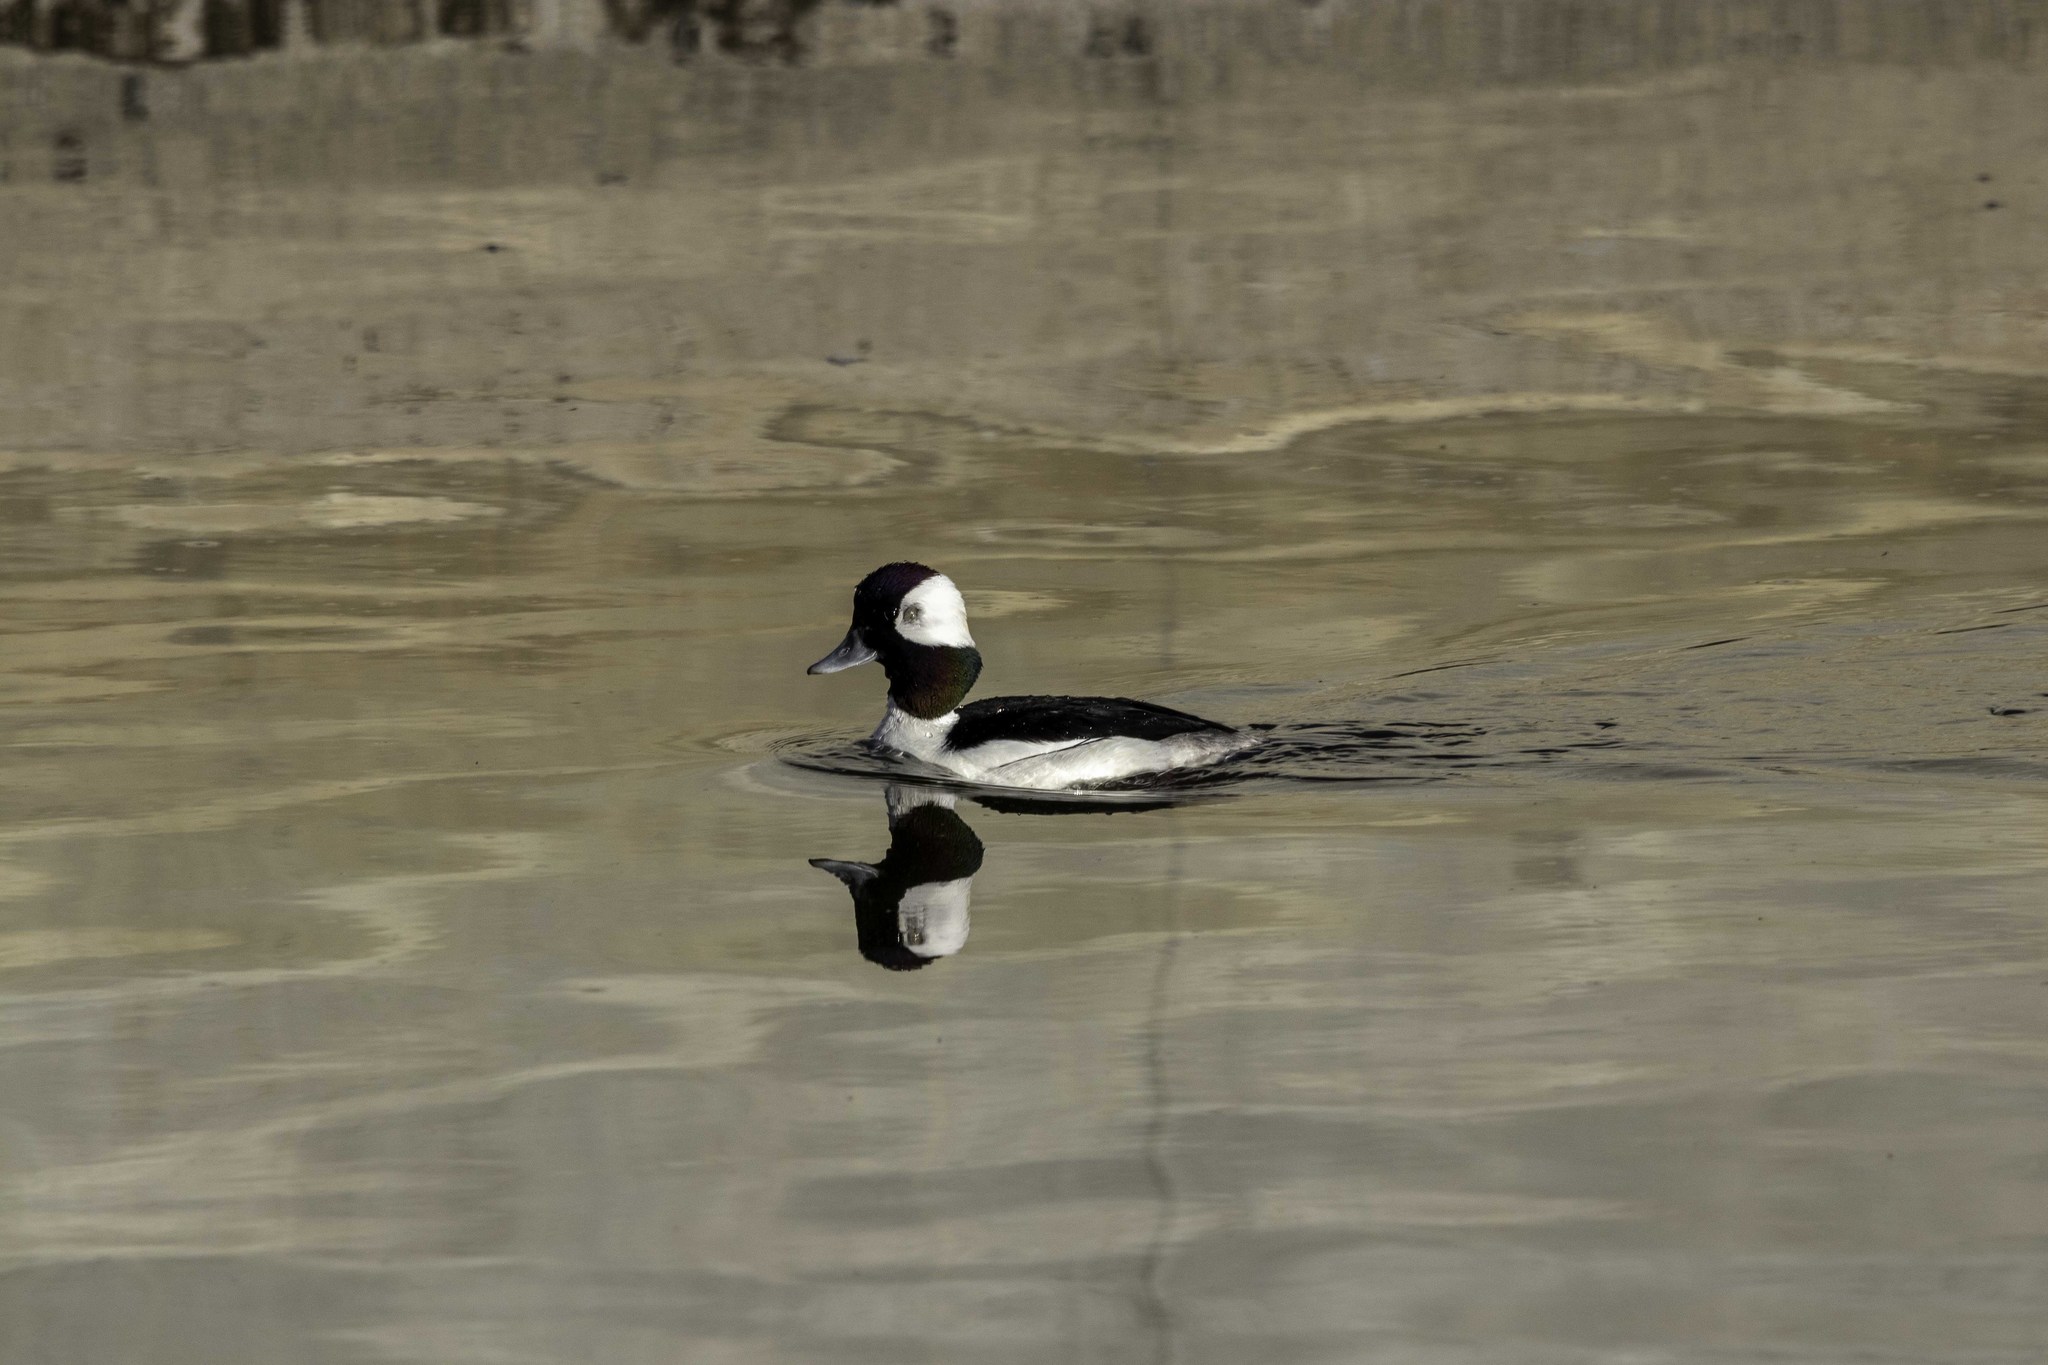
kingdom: Animalia
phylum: Chordata
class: Aves
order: Anseriformes
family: Anatidae
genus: Bucephala
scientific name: Bucephala albeola
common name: Bufflehead
